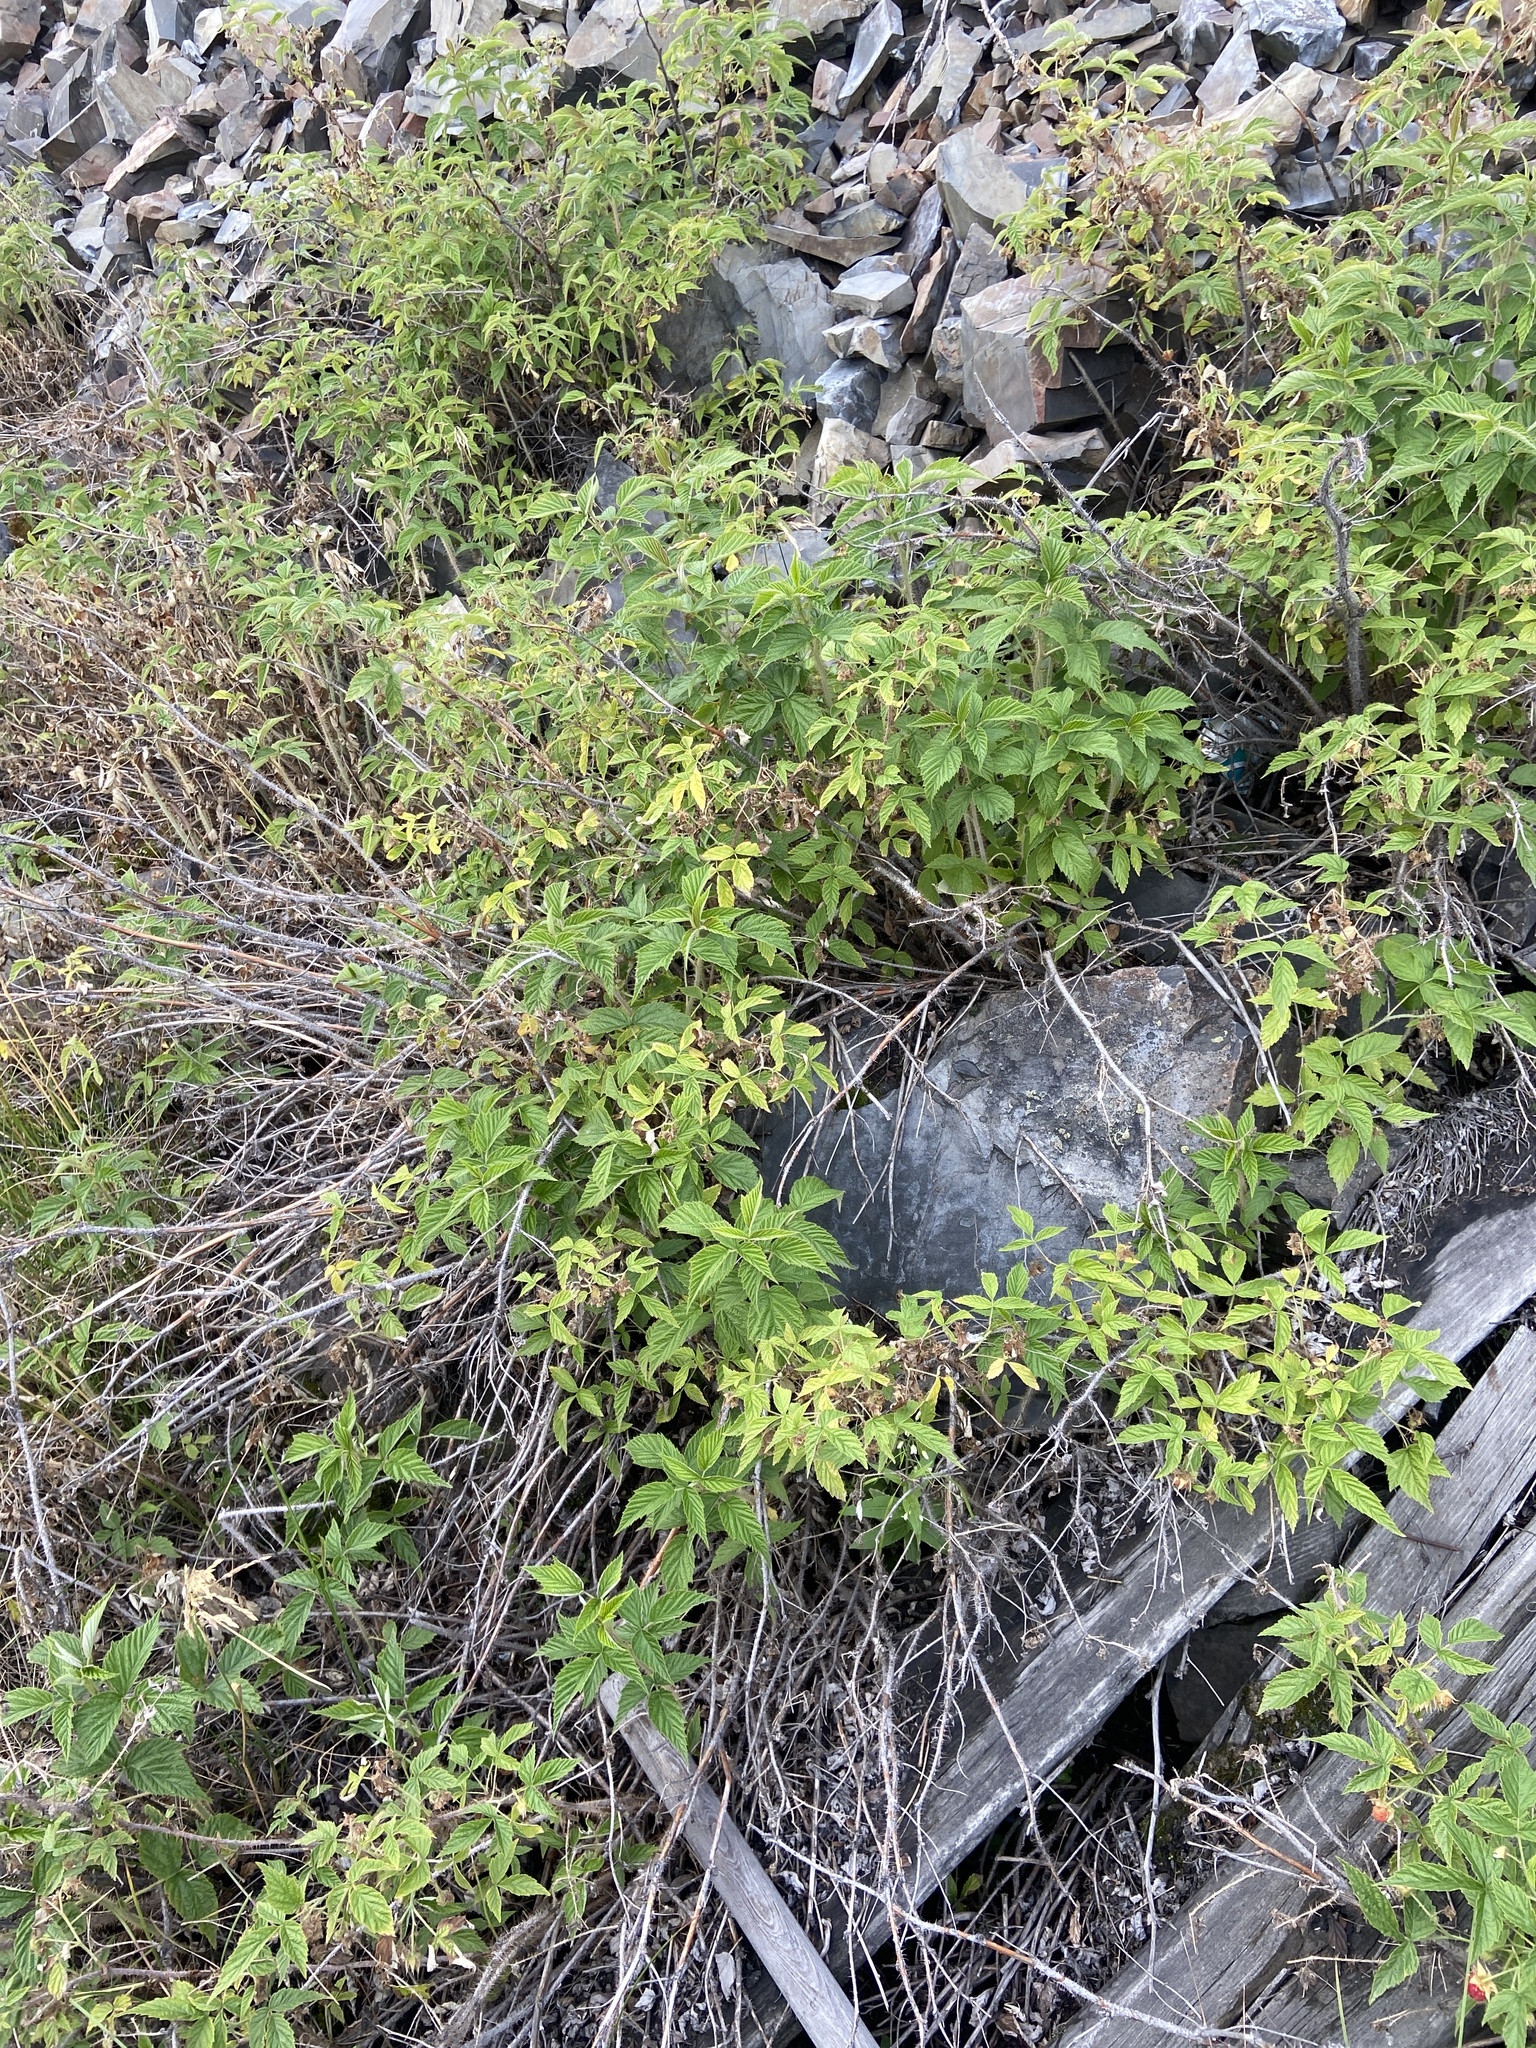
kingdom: Plantae
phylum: Tracheophyta
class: Magnoliopsida
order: Rosales
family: Rosaceae
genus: Rubus
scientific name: Rubus sachalinensis
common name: Red raspberry
